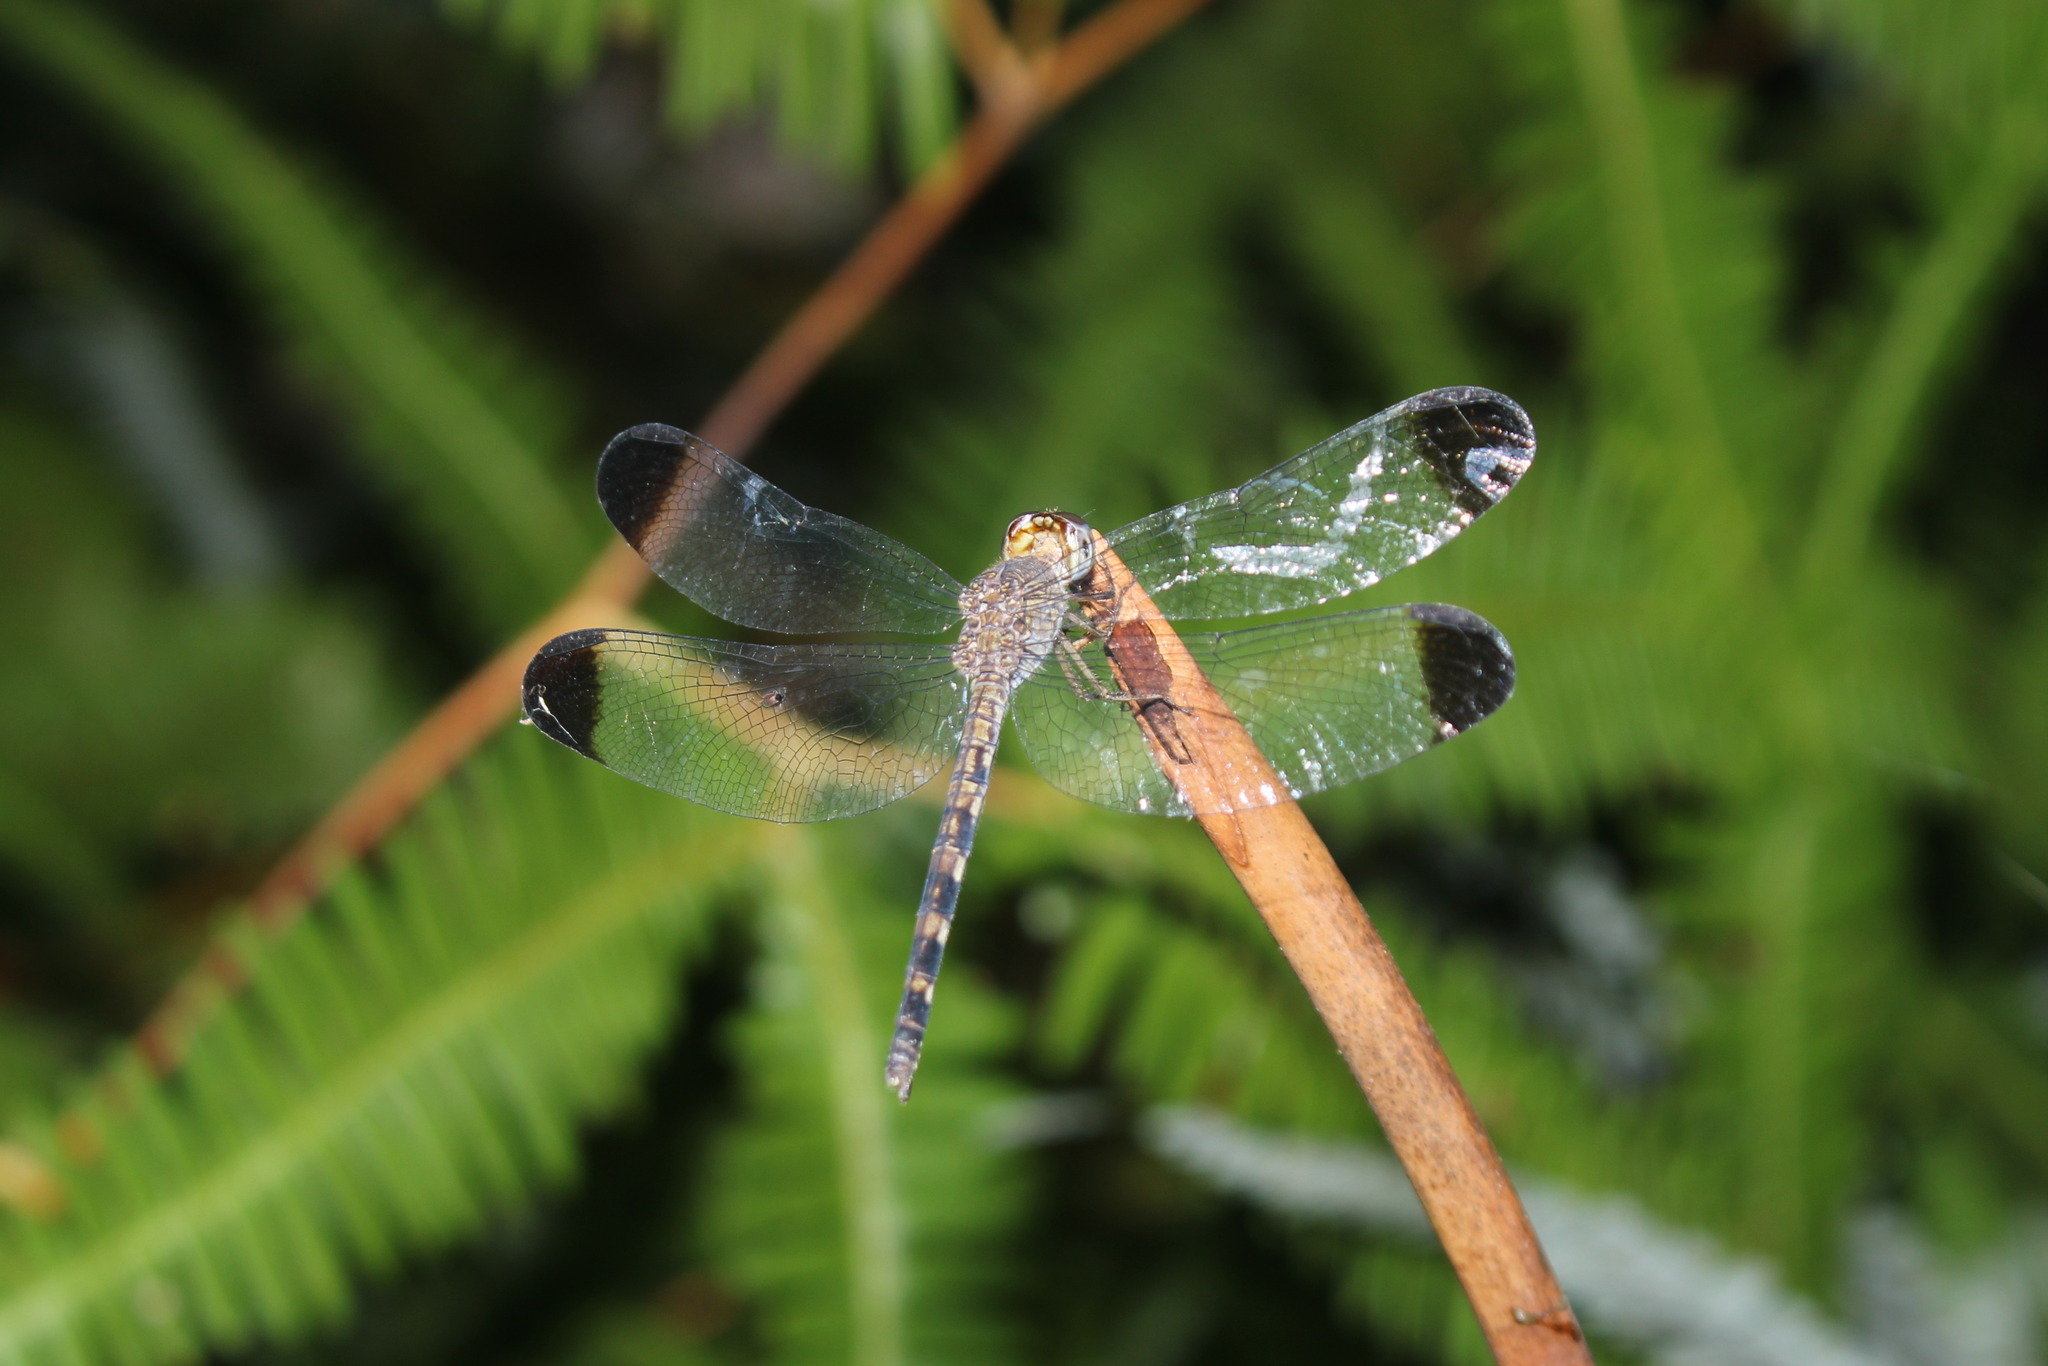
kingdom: Animalia
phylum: Arthropoda
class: Insecta
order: Odonata
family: Libellulidae
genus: Uracis
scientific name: Uracis imbuta
